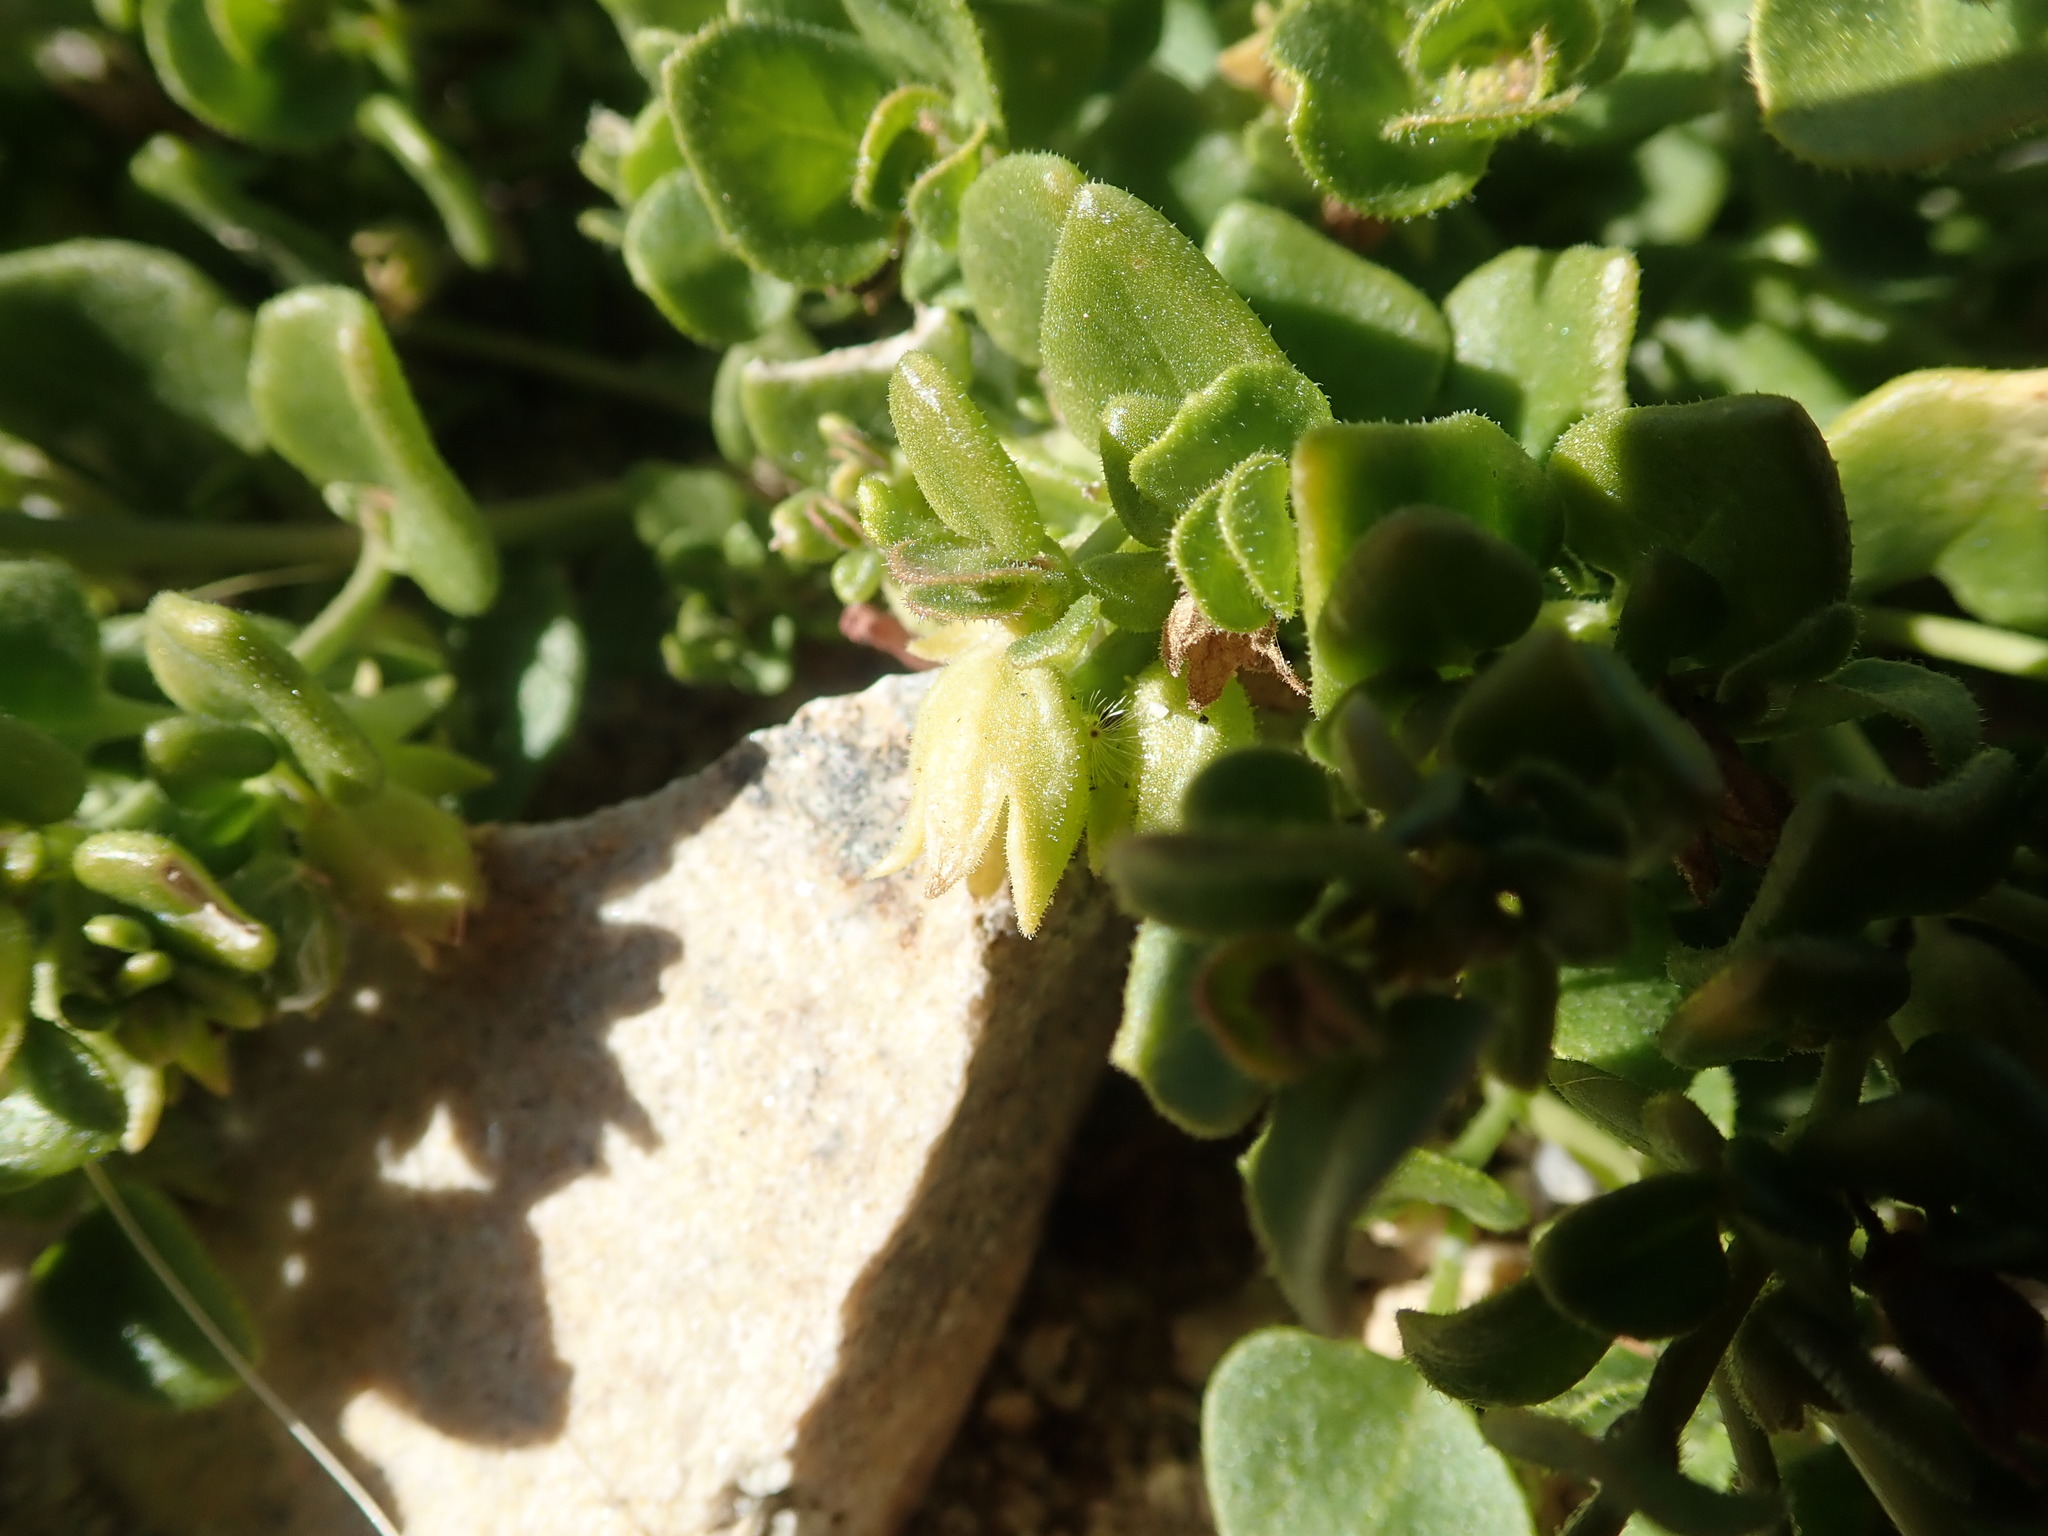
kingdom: Plantae
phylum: Tracheophyta
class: Magnoliopsida
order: Caryophyllales
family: Nyctaginaceae
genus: Mirabilis
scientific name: Mirabilis laevis
